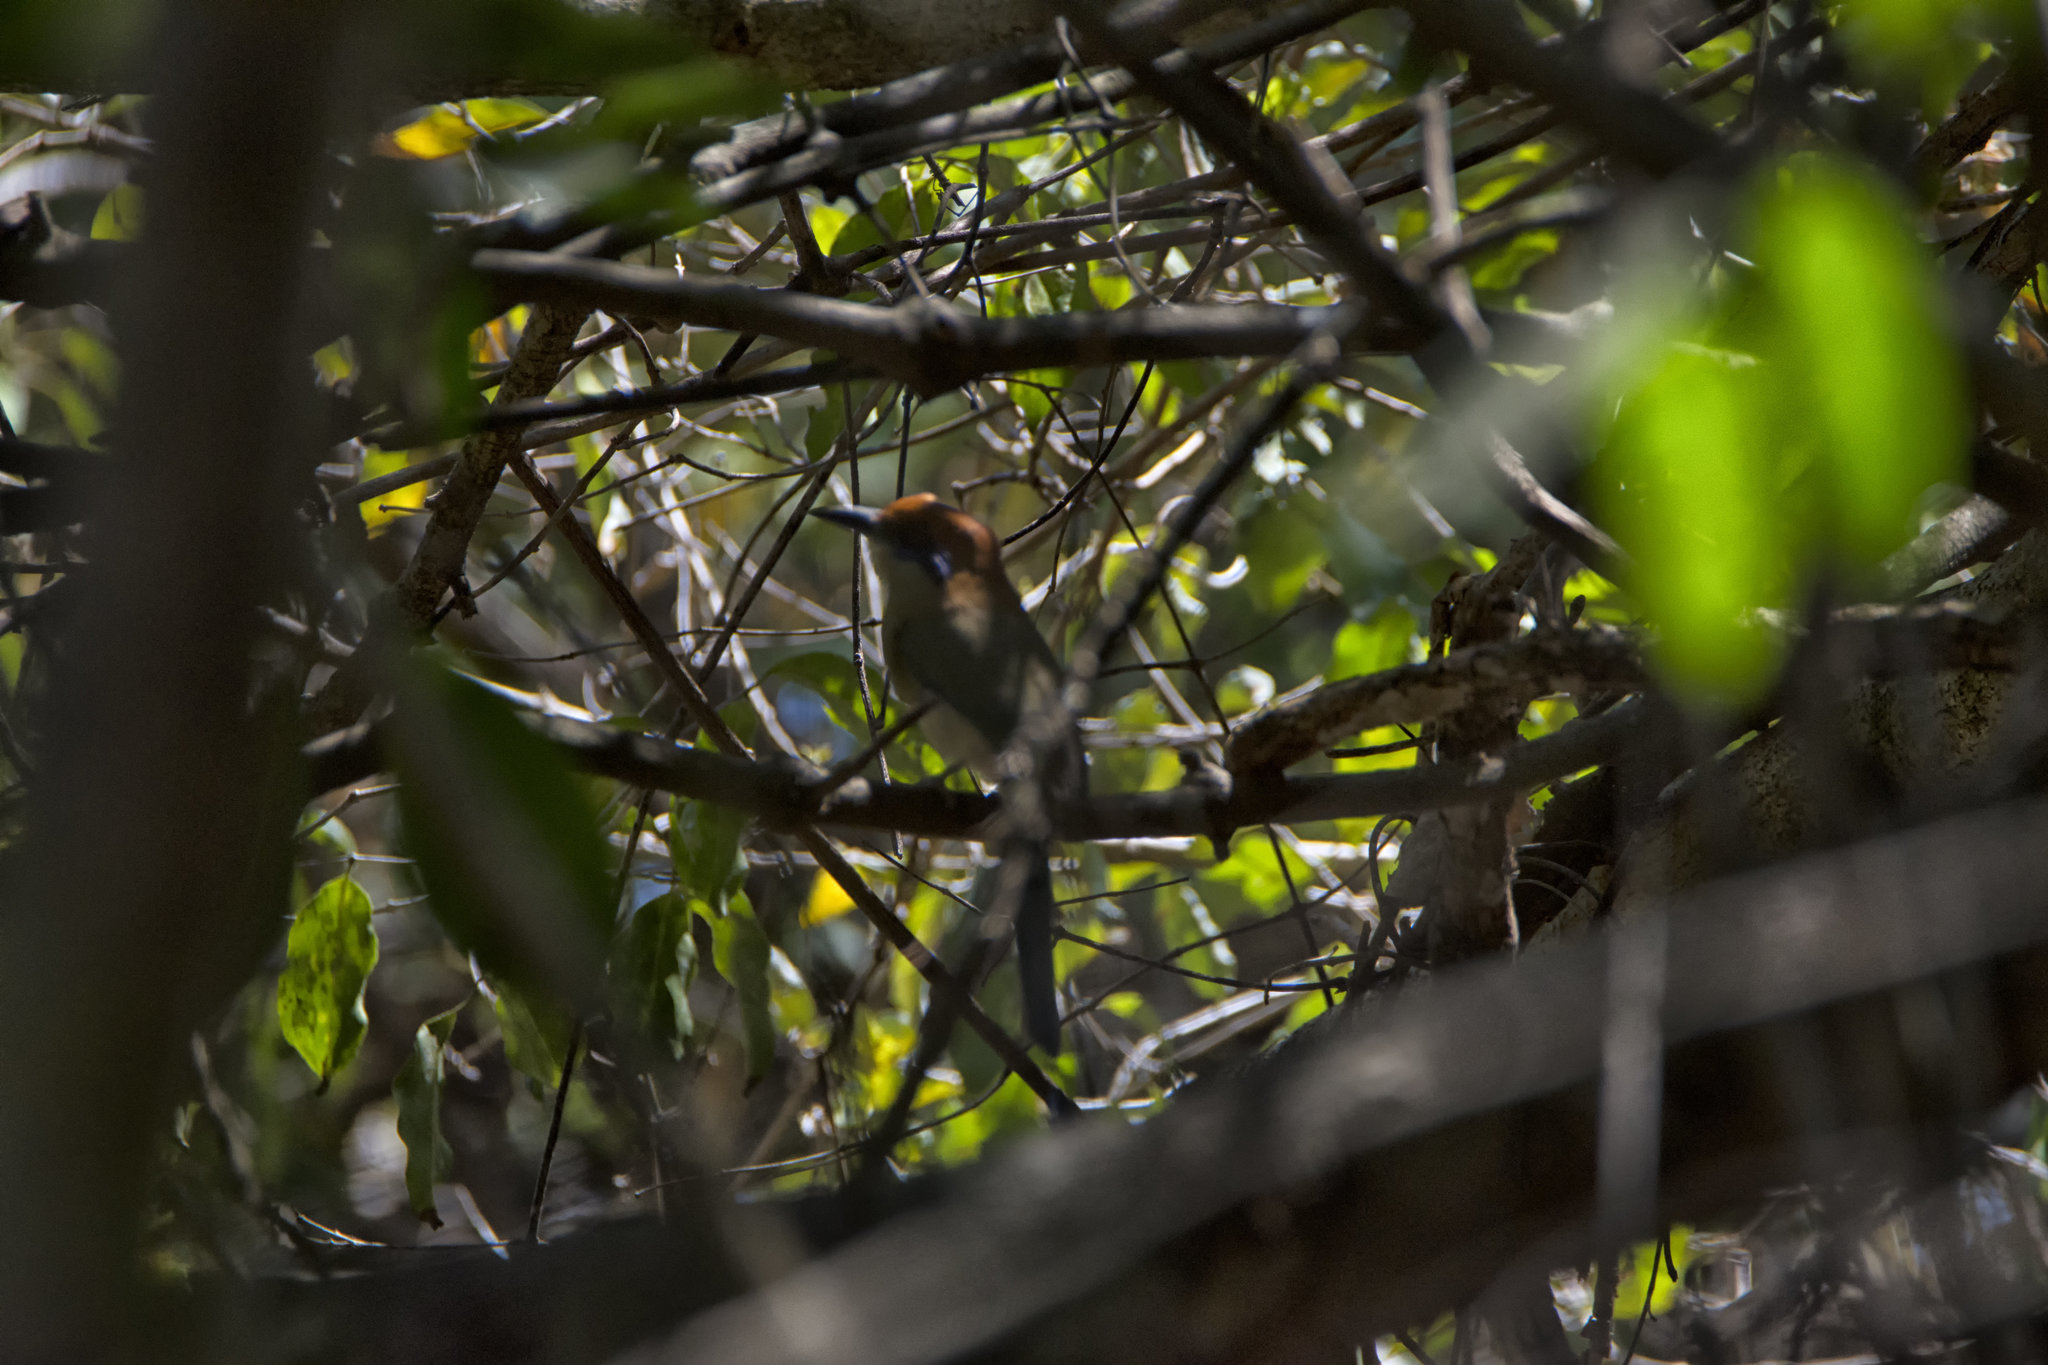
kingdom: Animalia
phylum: Chordata
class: Aves
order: Coraciiformes
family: Momotidae
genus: Momotus
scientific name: Momotus mexicanus
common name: Russet-crowned motmot
